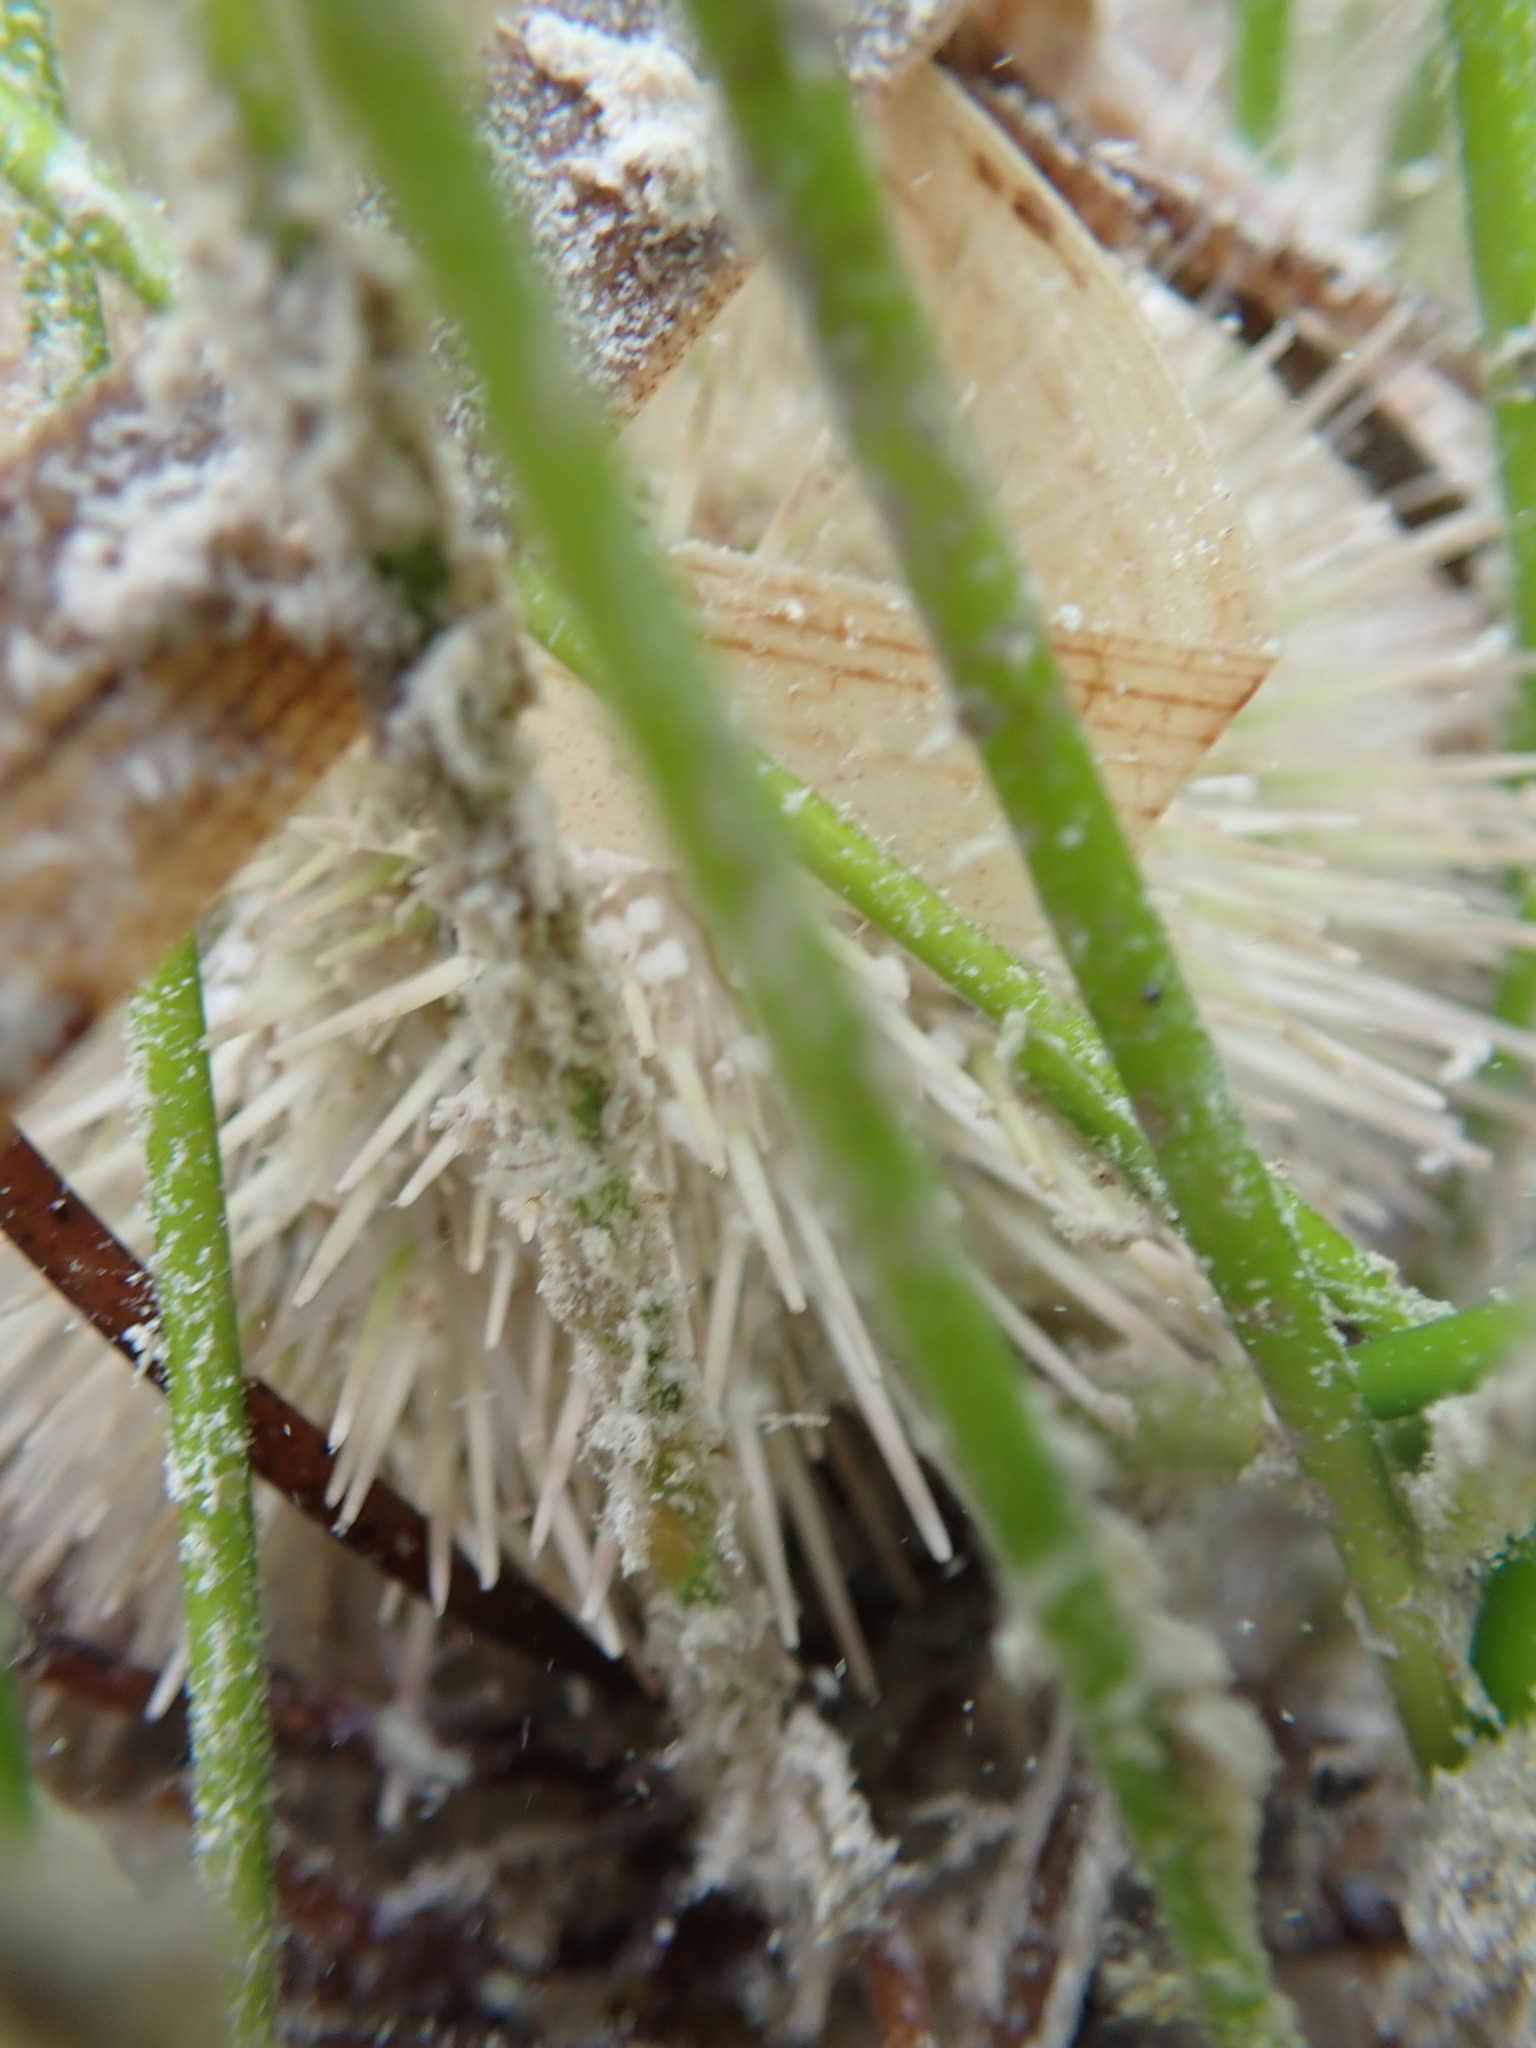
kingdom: Animalia
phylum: Echinodermata
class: Echinoidea
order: Camarodonta
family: Toxopneustidae
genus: Lytechinus
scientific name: Lytechinus variegatus
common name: Variegated urchin
